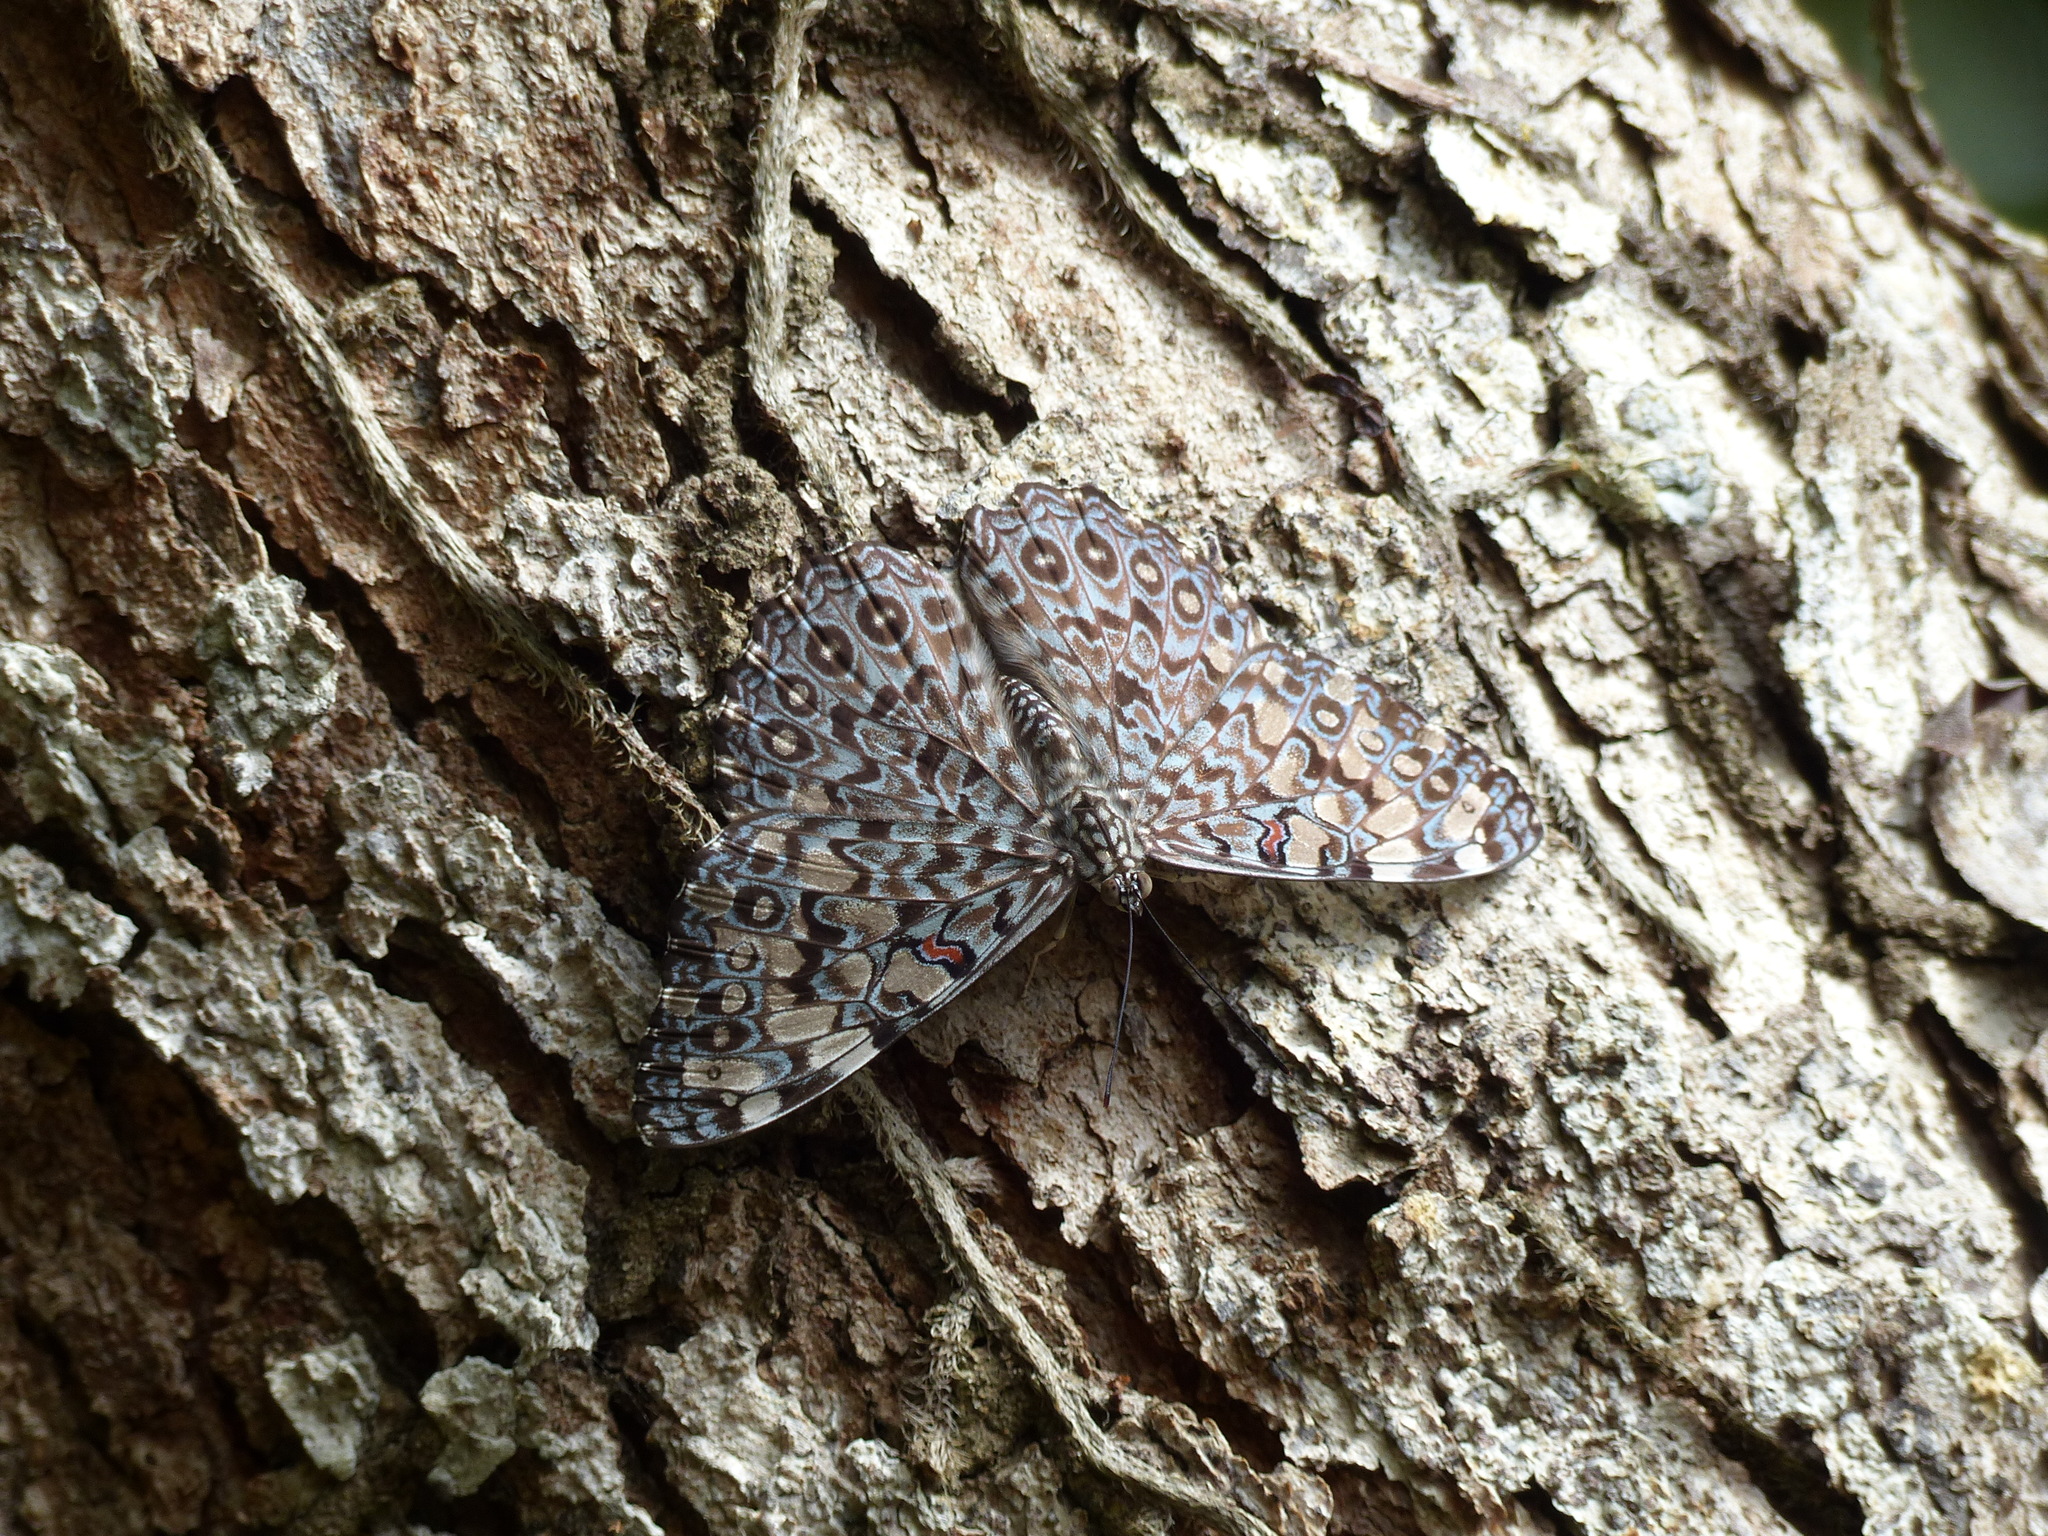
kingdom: Animalia
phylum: Arthropoda
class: Insecta
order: Lepidoptera
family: Nymphalidae
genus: Hamadryas
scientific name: Hamadryas feronia
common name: Variable cracker
